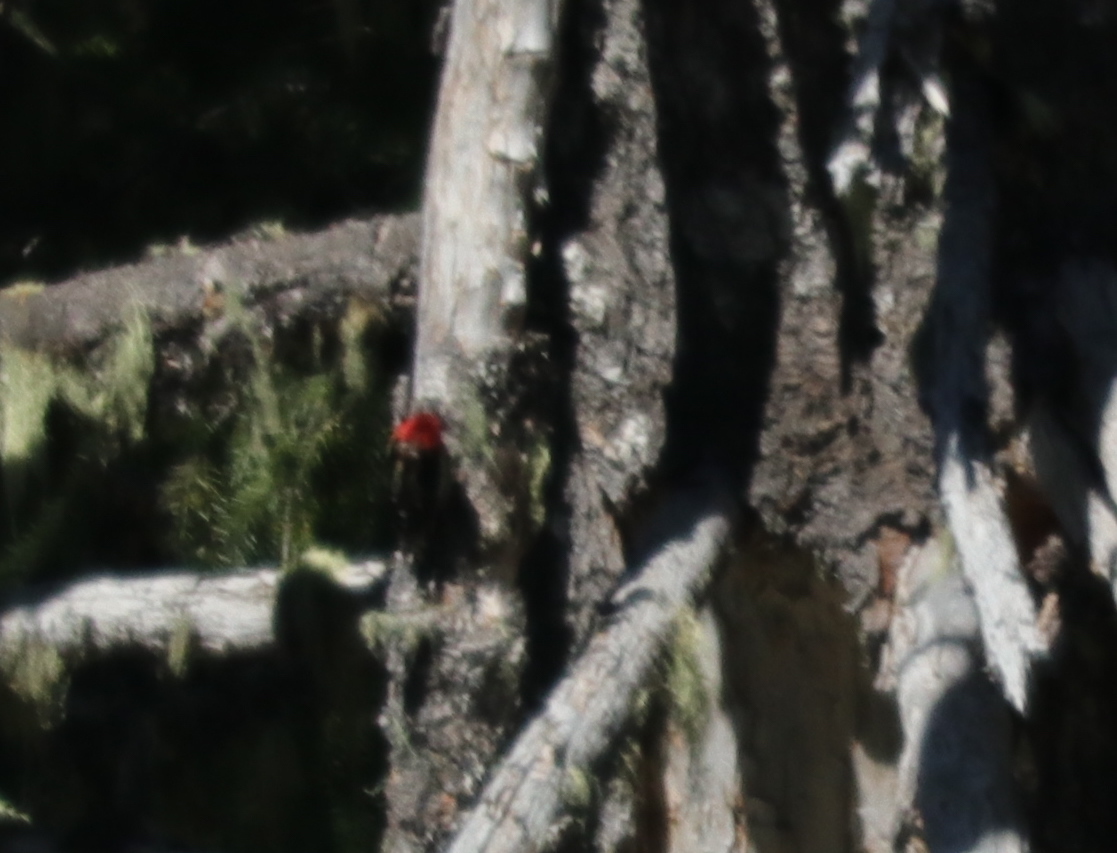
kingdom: Animalia
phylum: Chordata
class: Aves
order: Piciformes
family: Picidae
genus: Sphyrapicus
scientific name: Sphyrapicus ruber
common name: Red-breasted sapsucker
